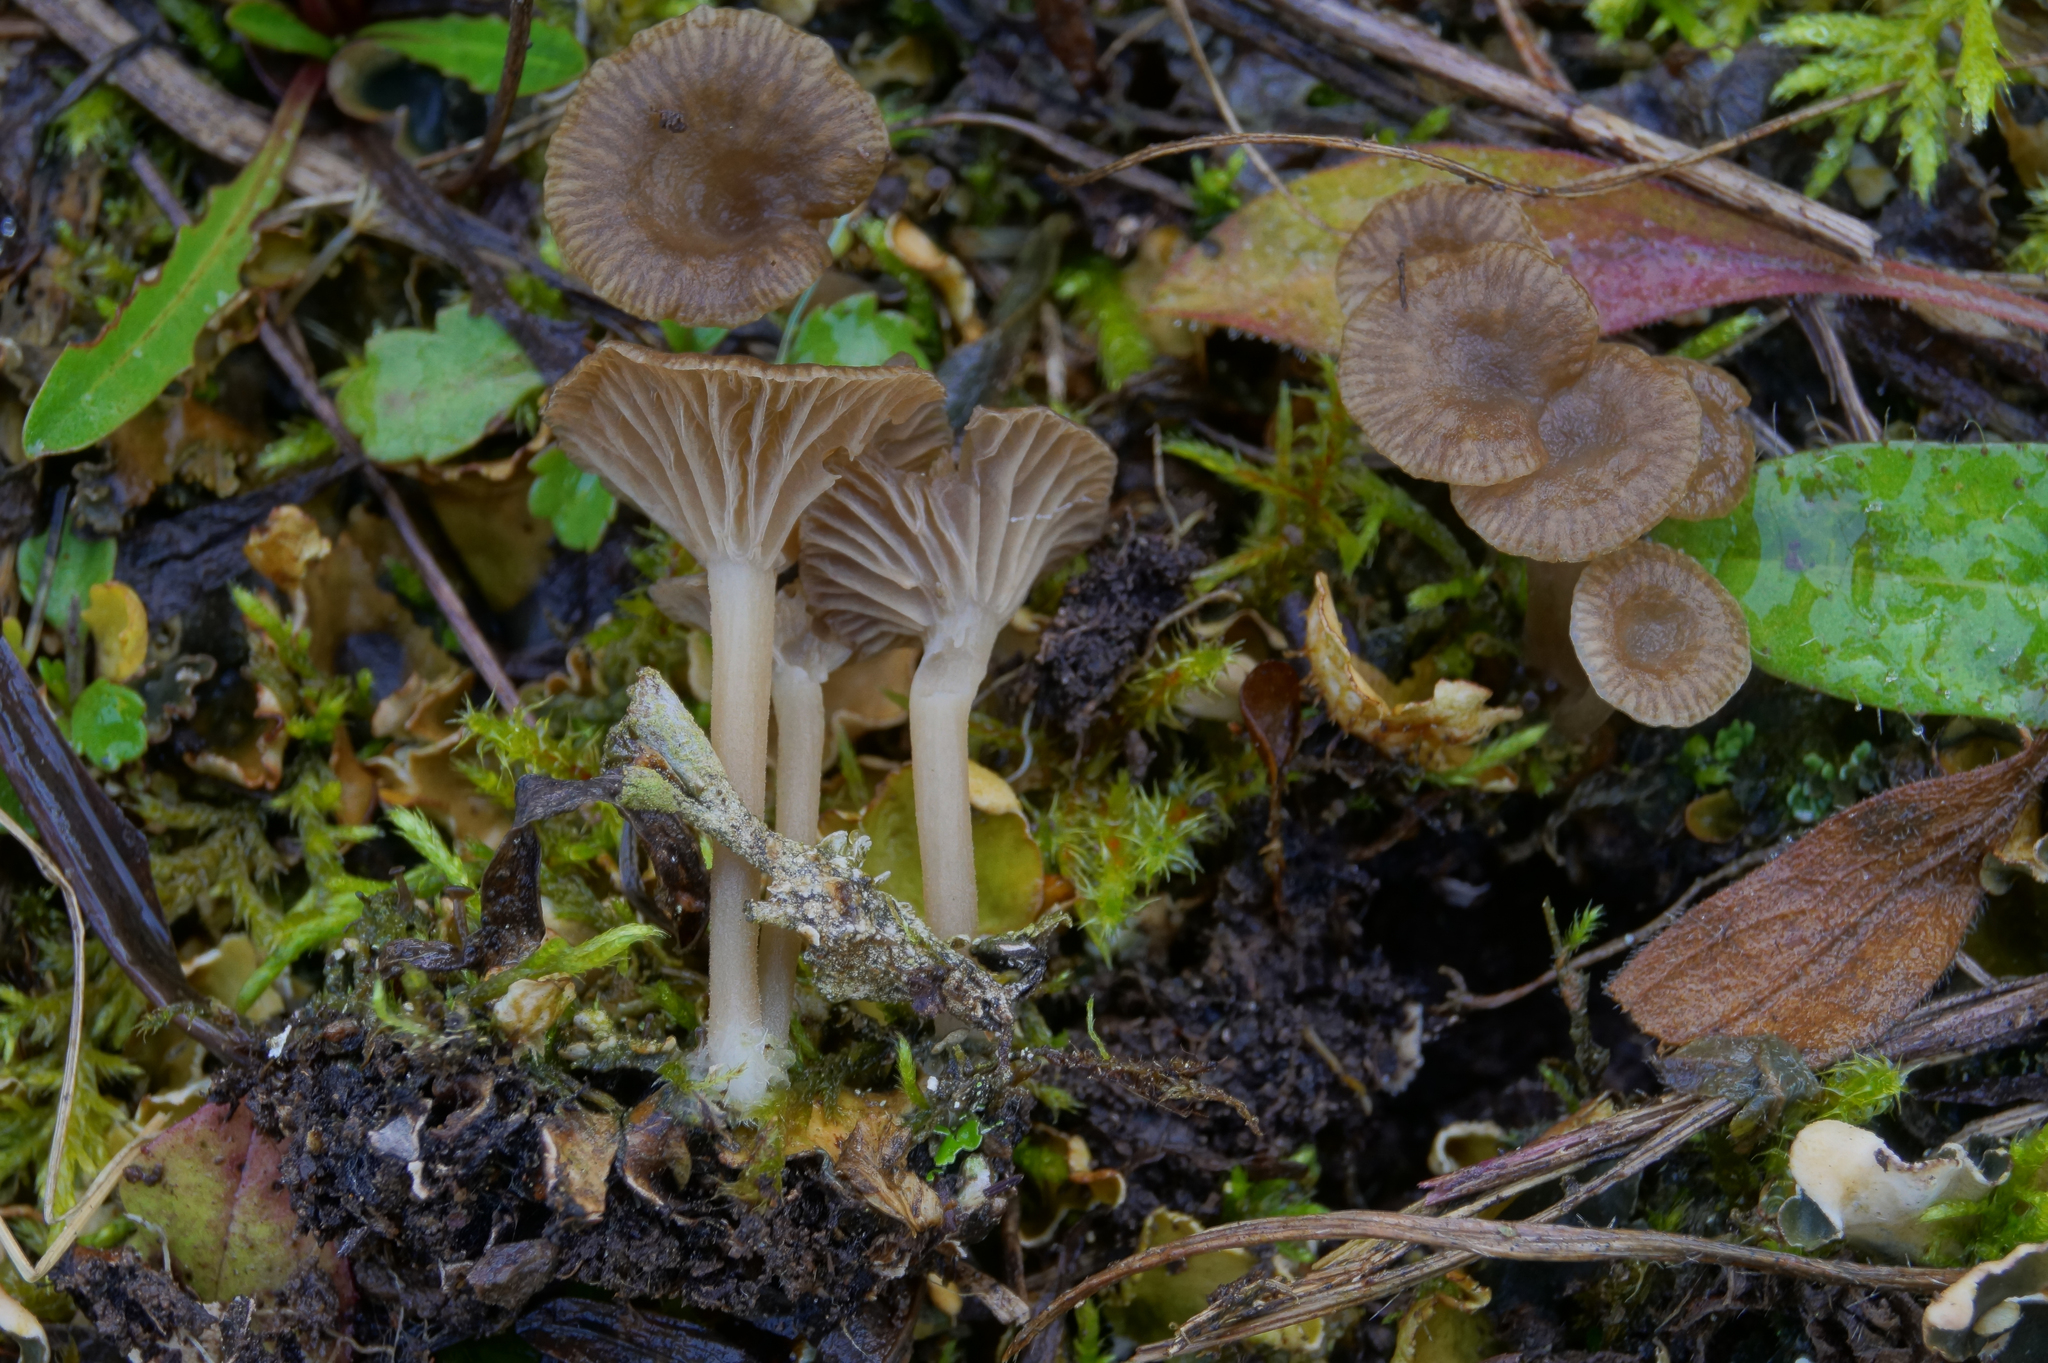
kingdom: Fungi
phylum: Basidiomycota
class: Agaricomycetes
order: Agaricales
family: Hygrophoraceae
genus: Arrhenia
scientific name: Arrhenia peltigerina
